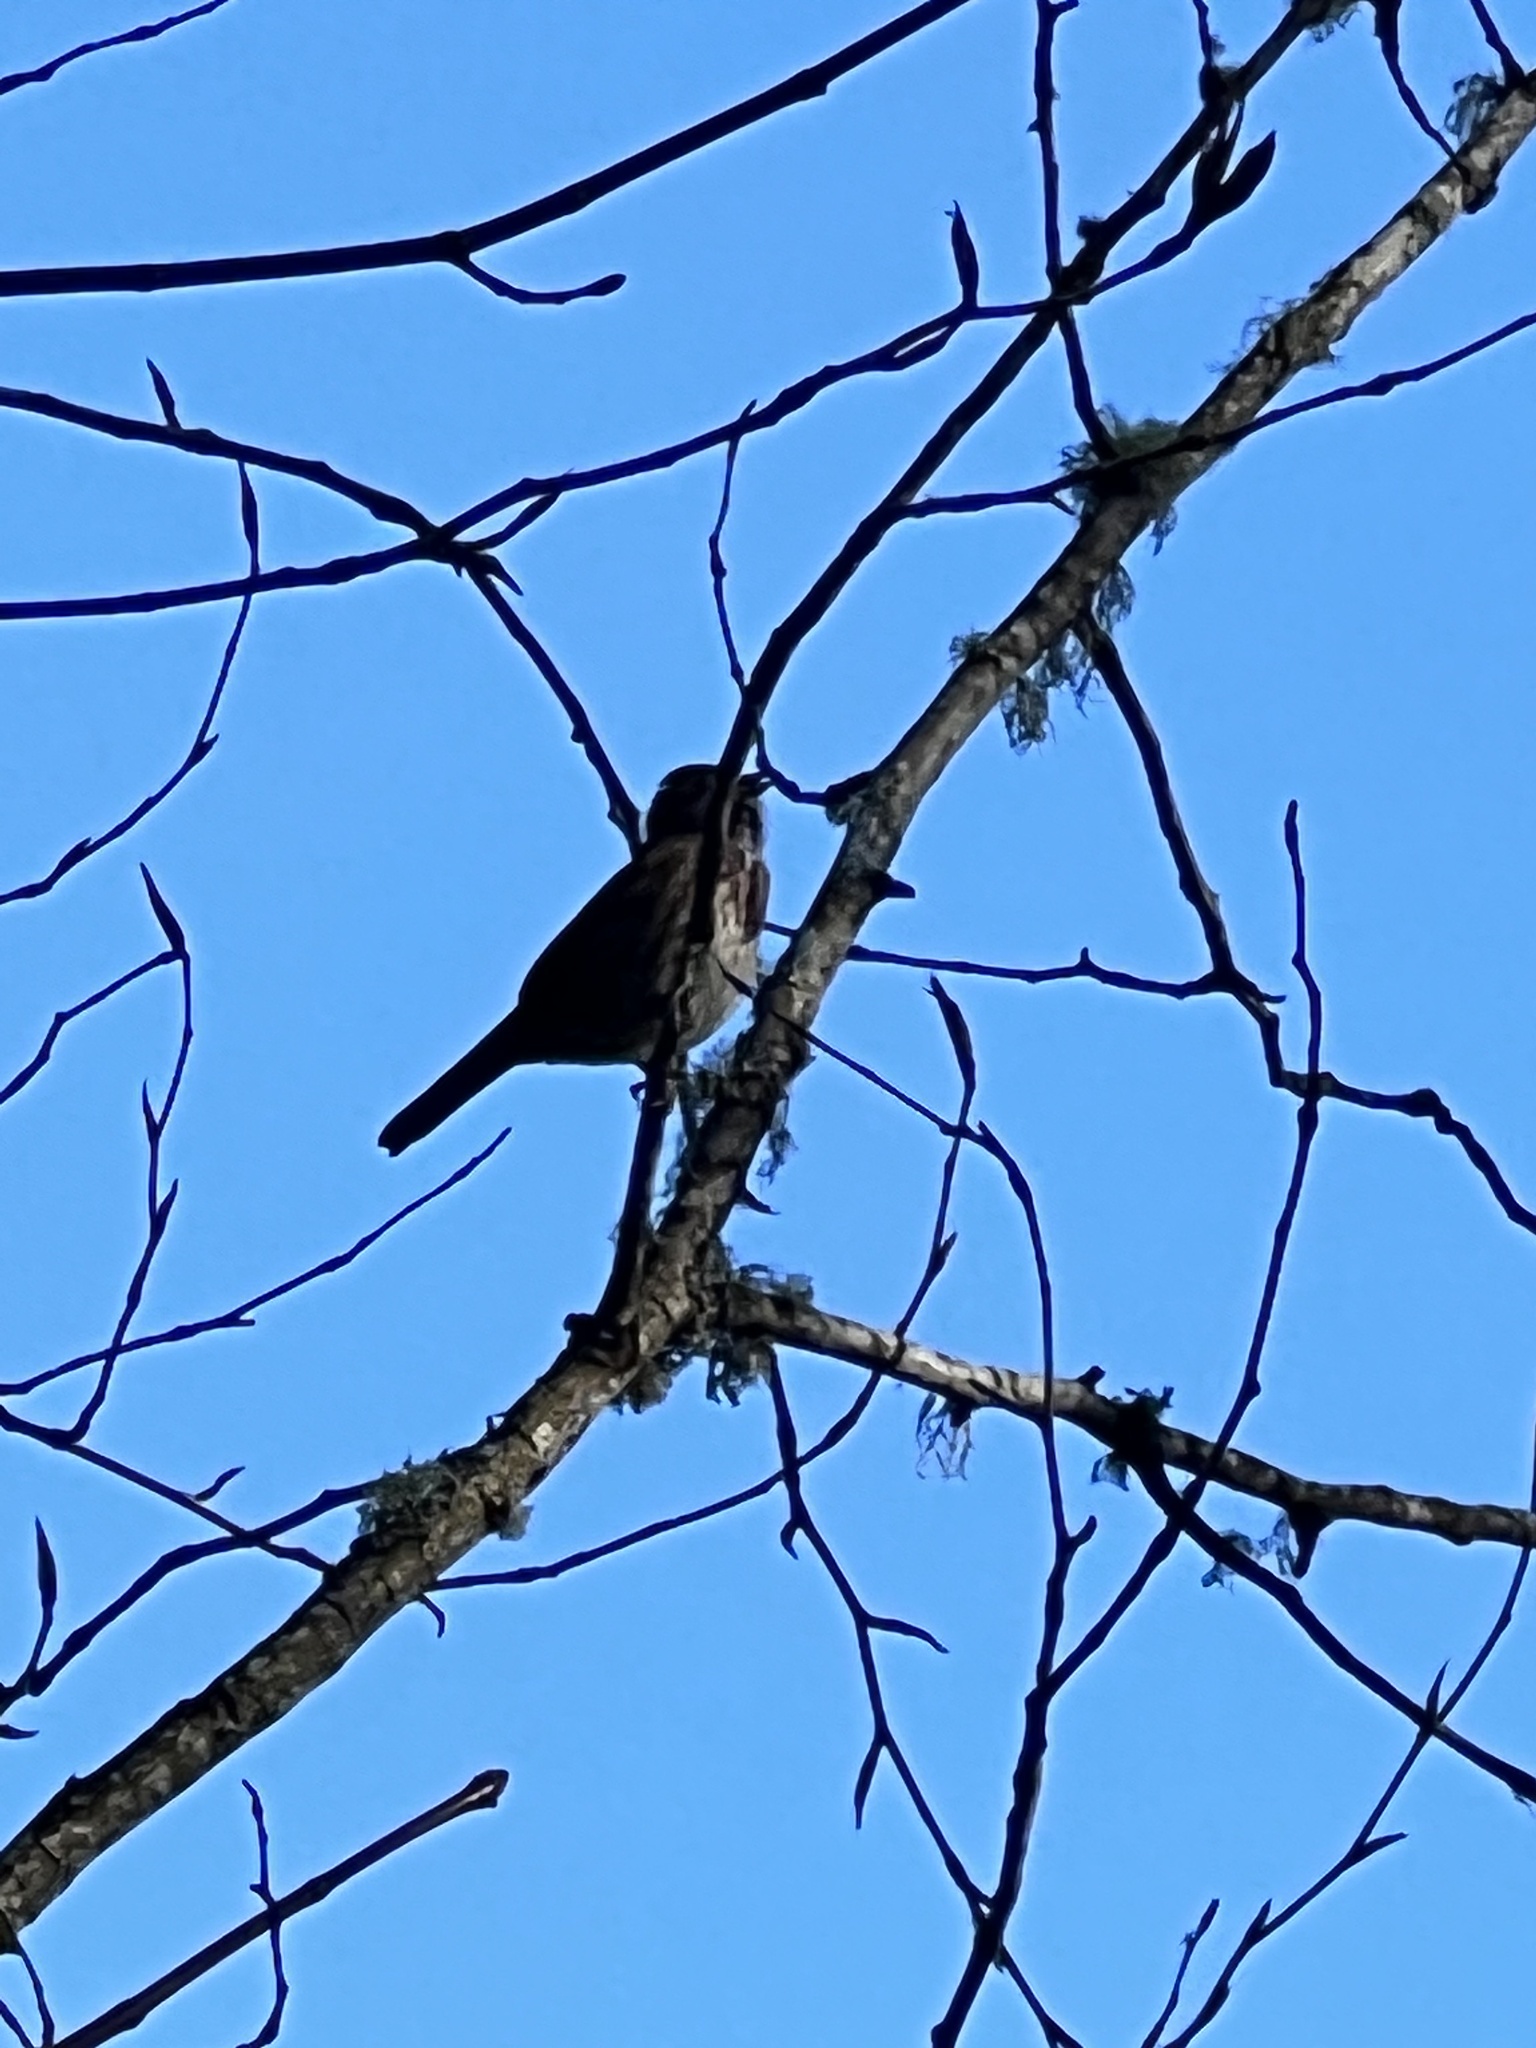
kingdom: Animalia
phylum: Chordata
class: Aves
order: Passeriformes
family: Passerellidae
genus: Melospiza
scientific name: Melospiza melodia
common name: Song sparrow
